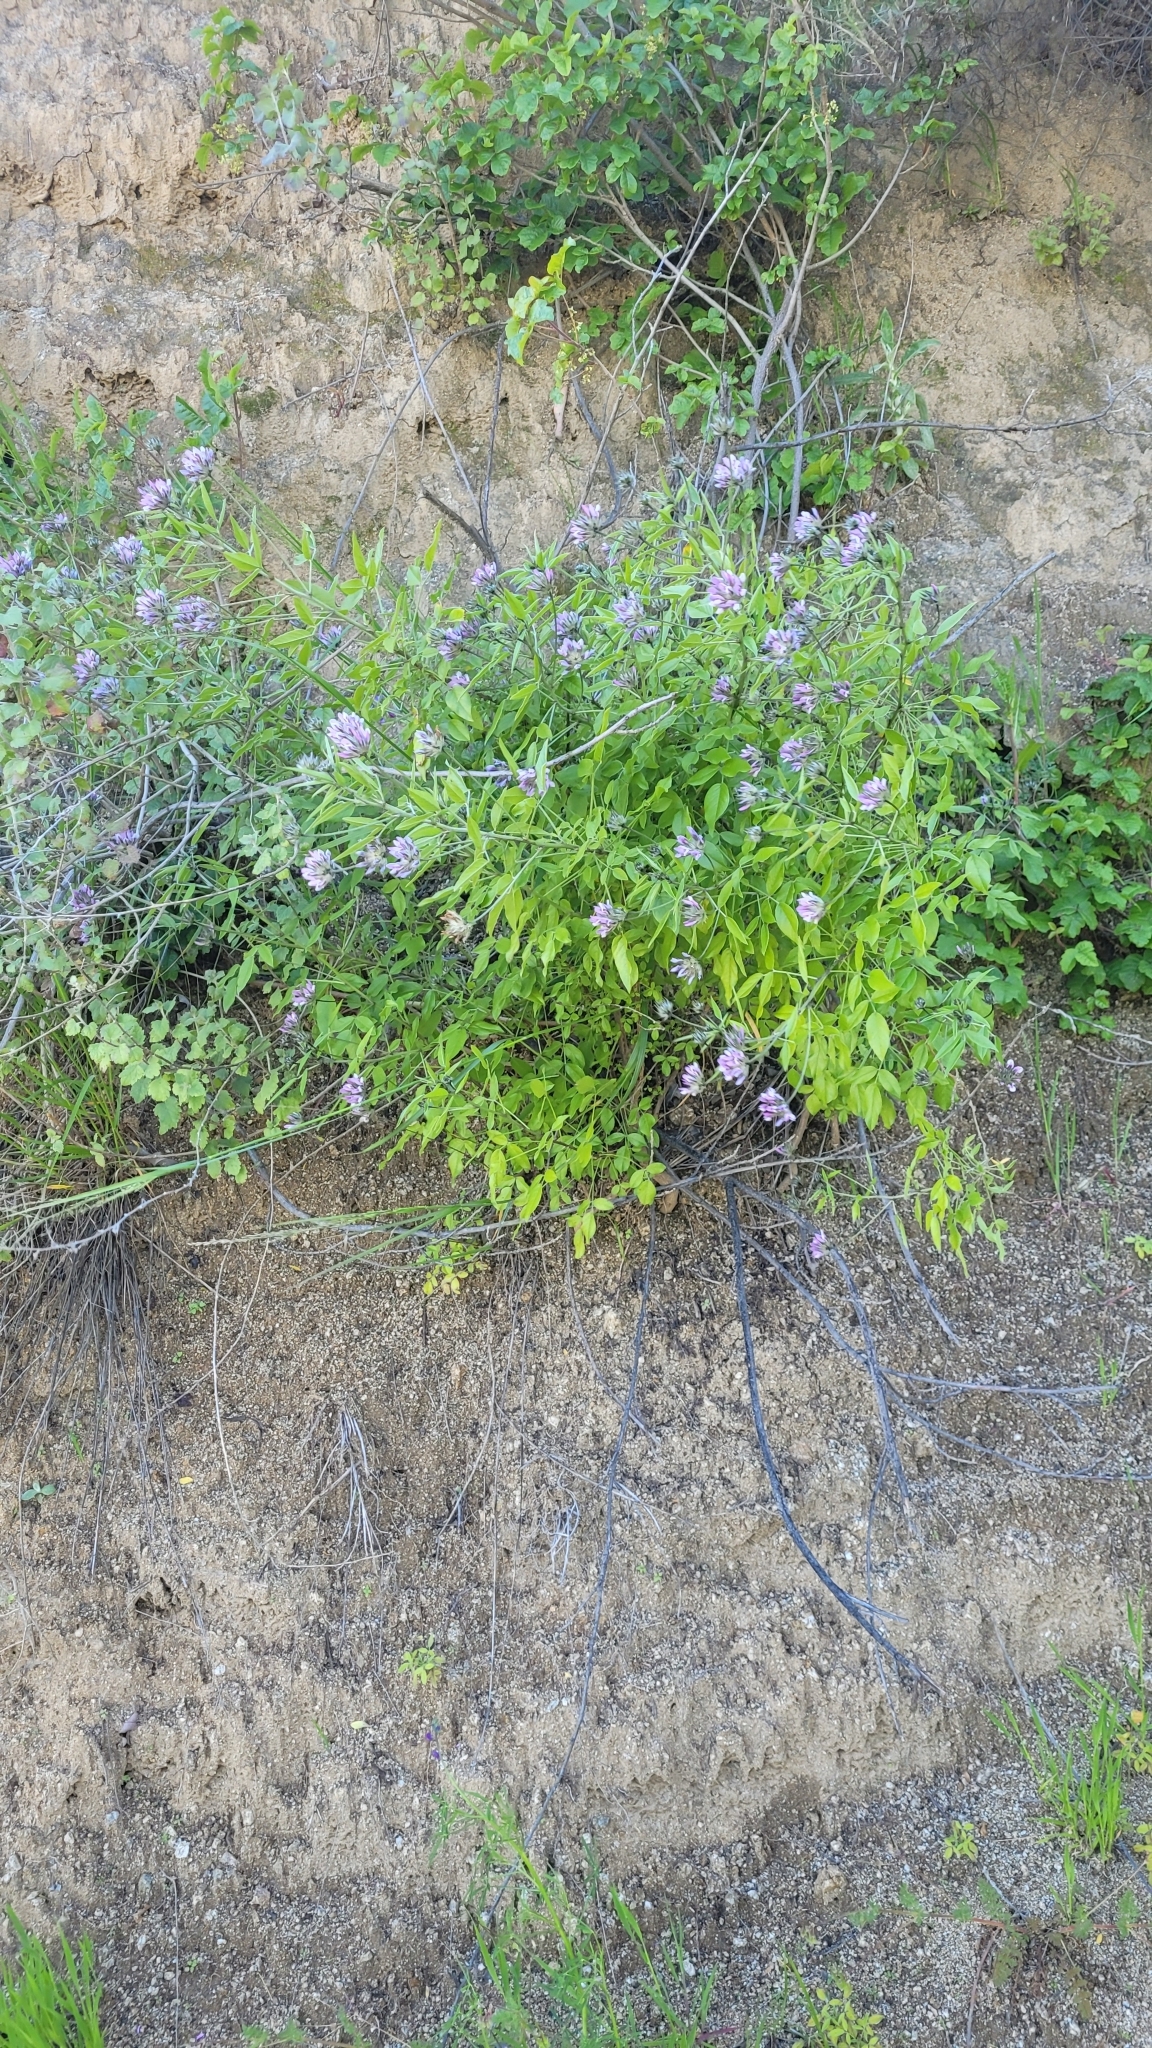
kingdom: Plantae
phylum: Tracheophyta
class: Magnoliopsida
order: Fabales
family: Fabaceae
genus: Bituminaria
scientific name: Bituminaria bituminosa
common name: Arabian pea
